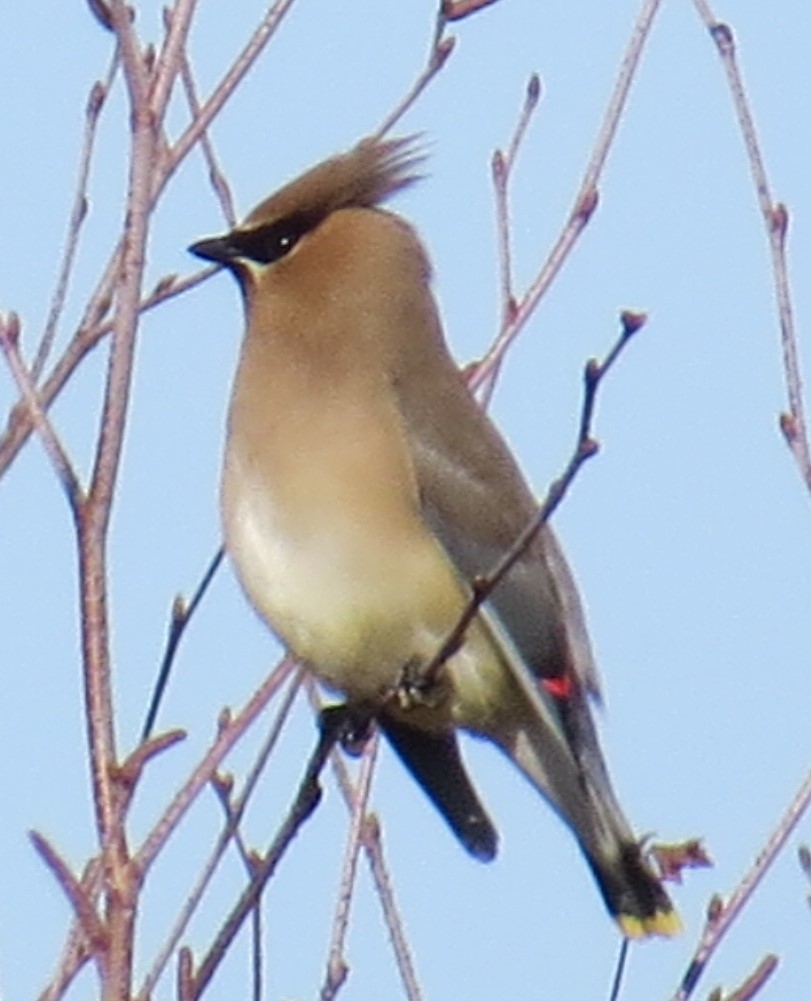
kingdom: Animalia
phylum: Chordata
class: Aves
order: Passeriformes
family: Bombycillidae
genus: Bombycilla
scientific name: Bombycilla cedrorum
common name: Cedar waxwing
